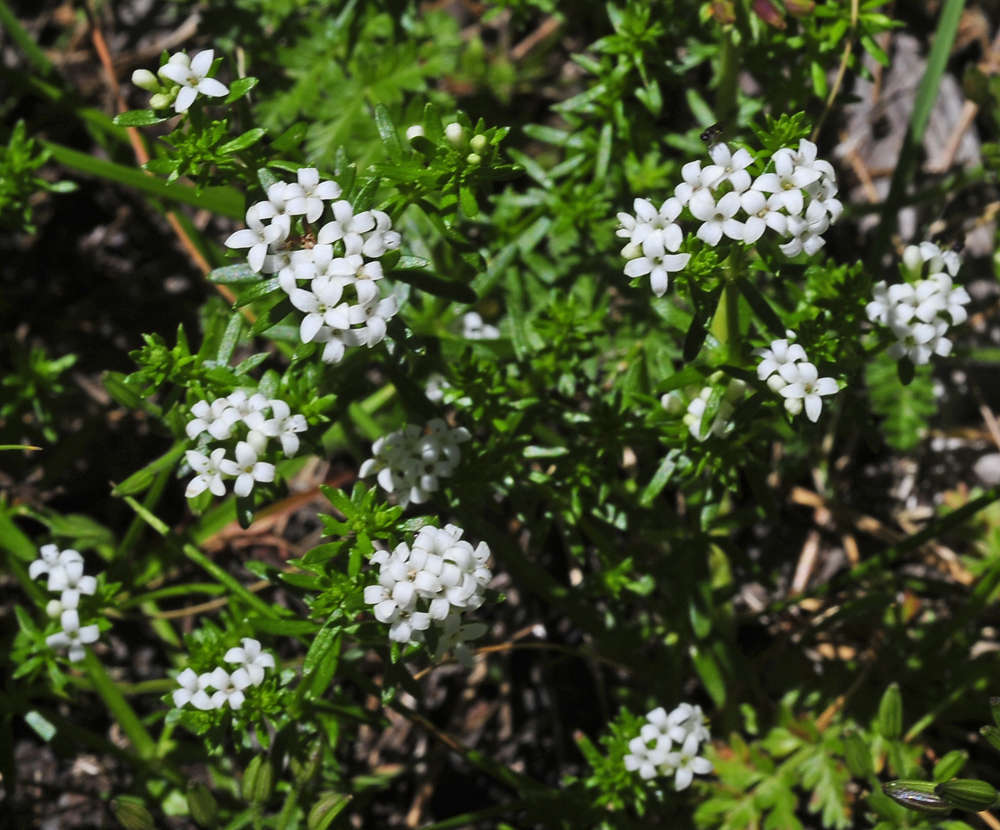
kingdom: Plantae
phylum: Tracheophyta
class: Magnoliopsida
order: Gentianales
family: Rubiaceae
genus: Asperula
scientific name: Asperula pusilla
